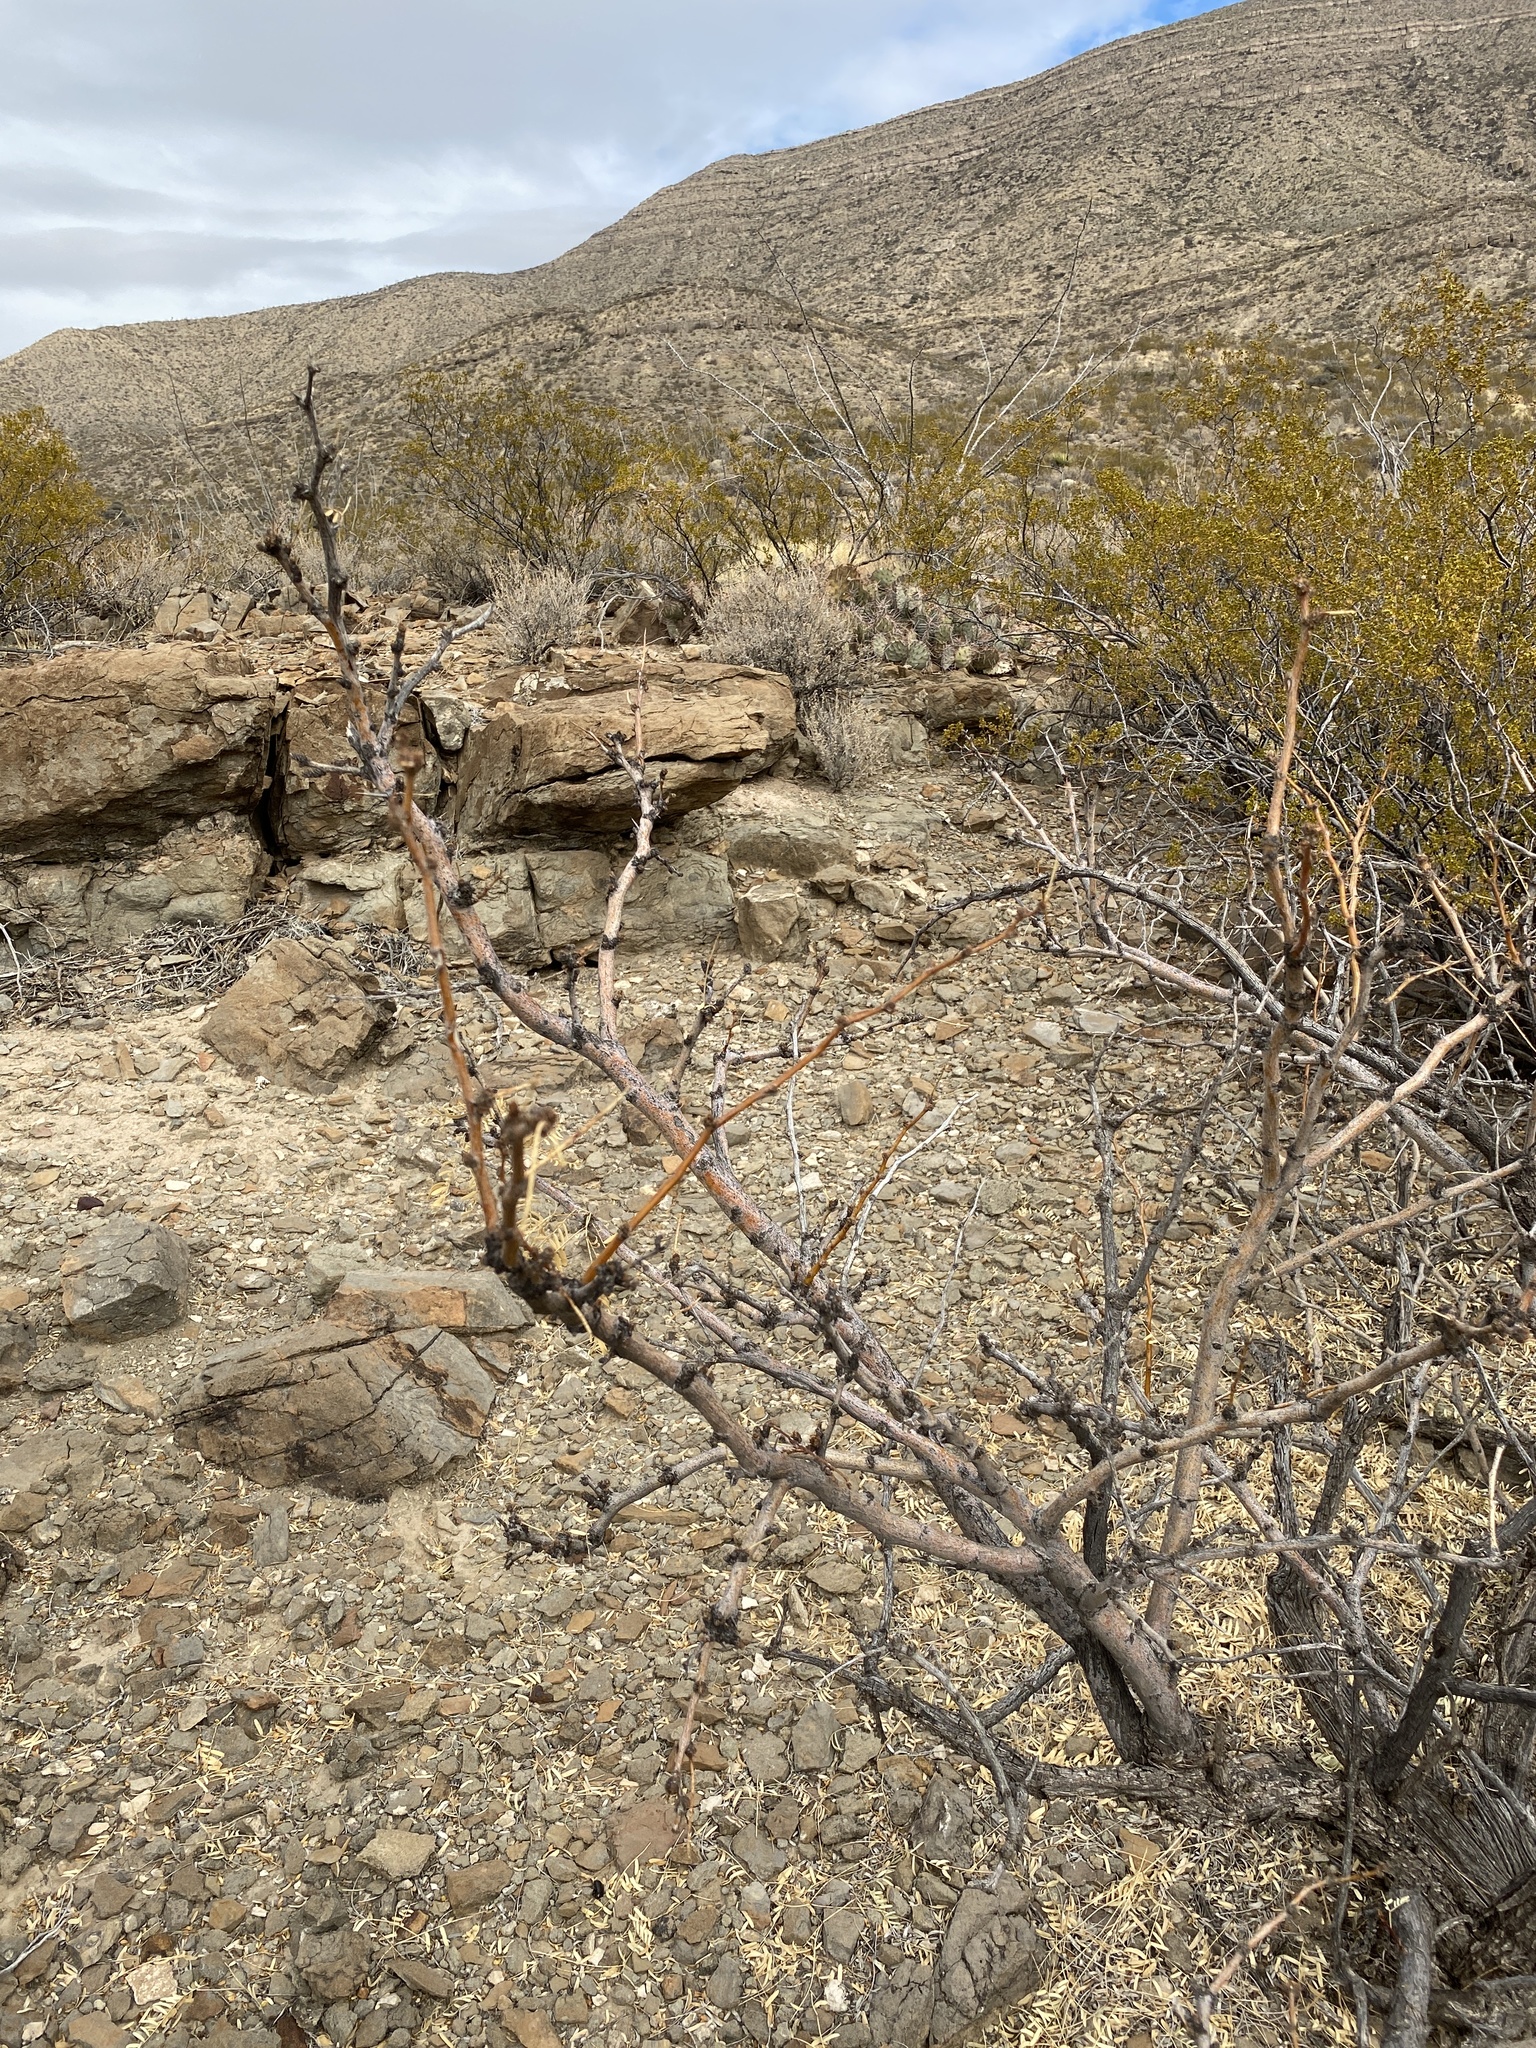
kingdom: Plantae
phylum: Tracheophyta
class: Magnoliopsida
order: Fabales
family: Fabaceae
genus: Prosopis
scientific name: Prosopis glandulosa
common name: Honey mesquite
